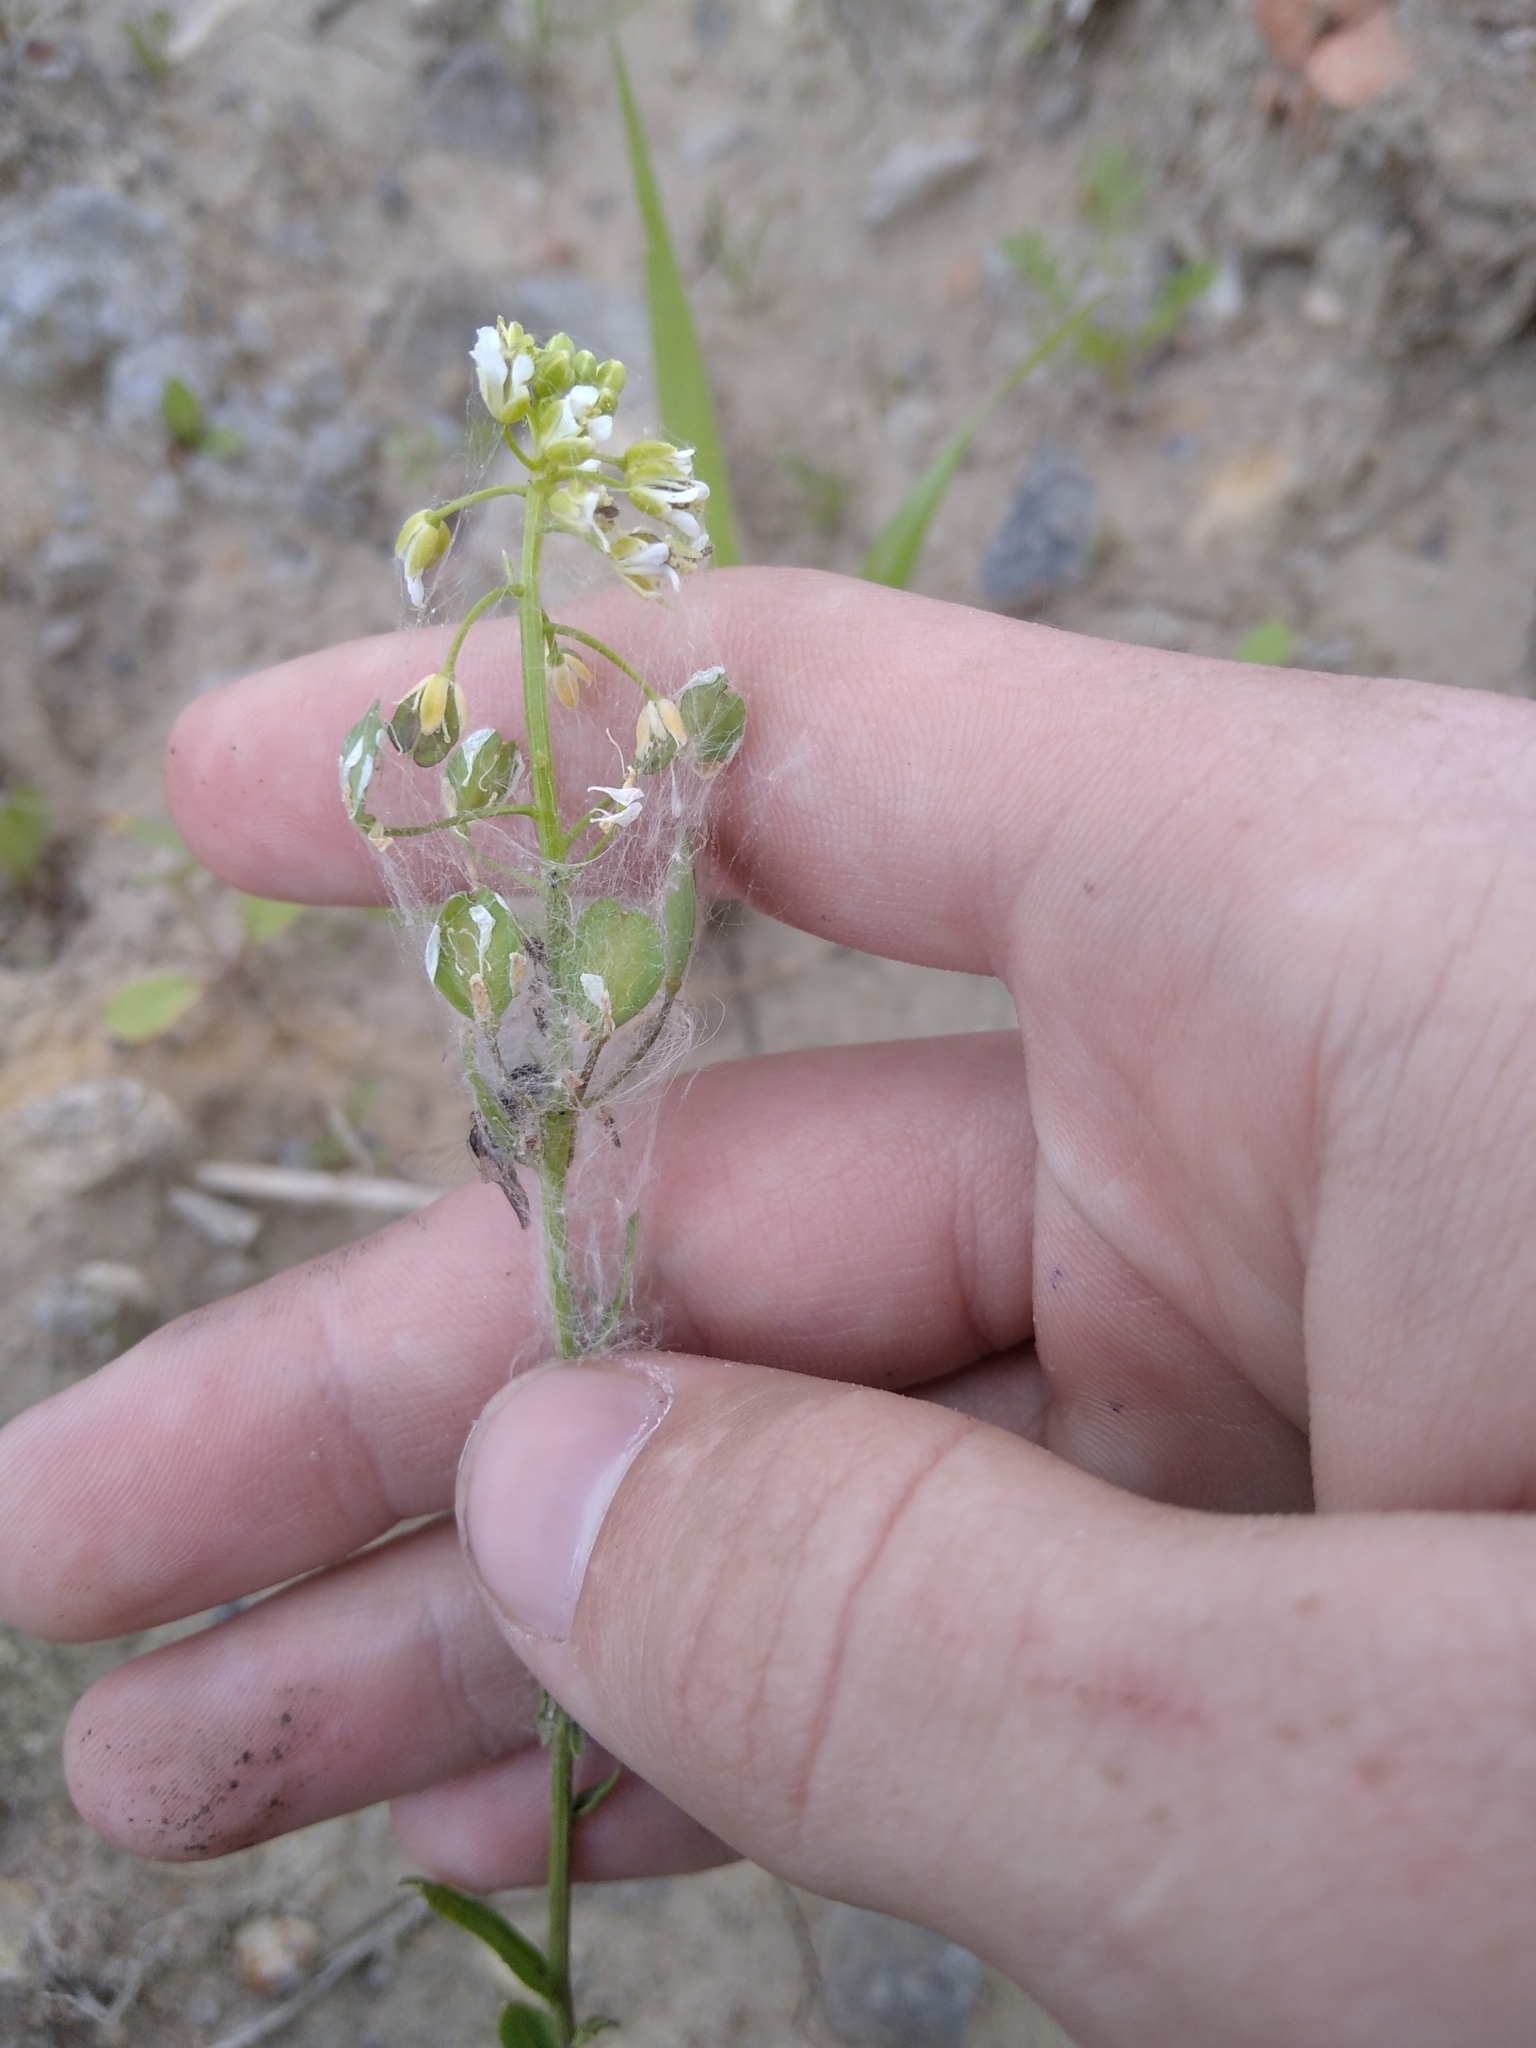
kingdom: Plantae
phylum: Tracheophyta
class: Magnoliopsida
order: Brassicales
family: Brassicaceae
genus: Thlaspi
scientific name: Thlaspi arvense
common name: Field pennycress
